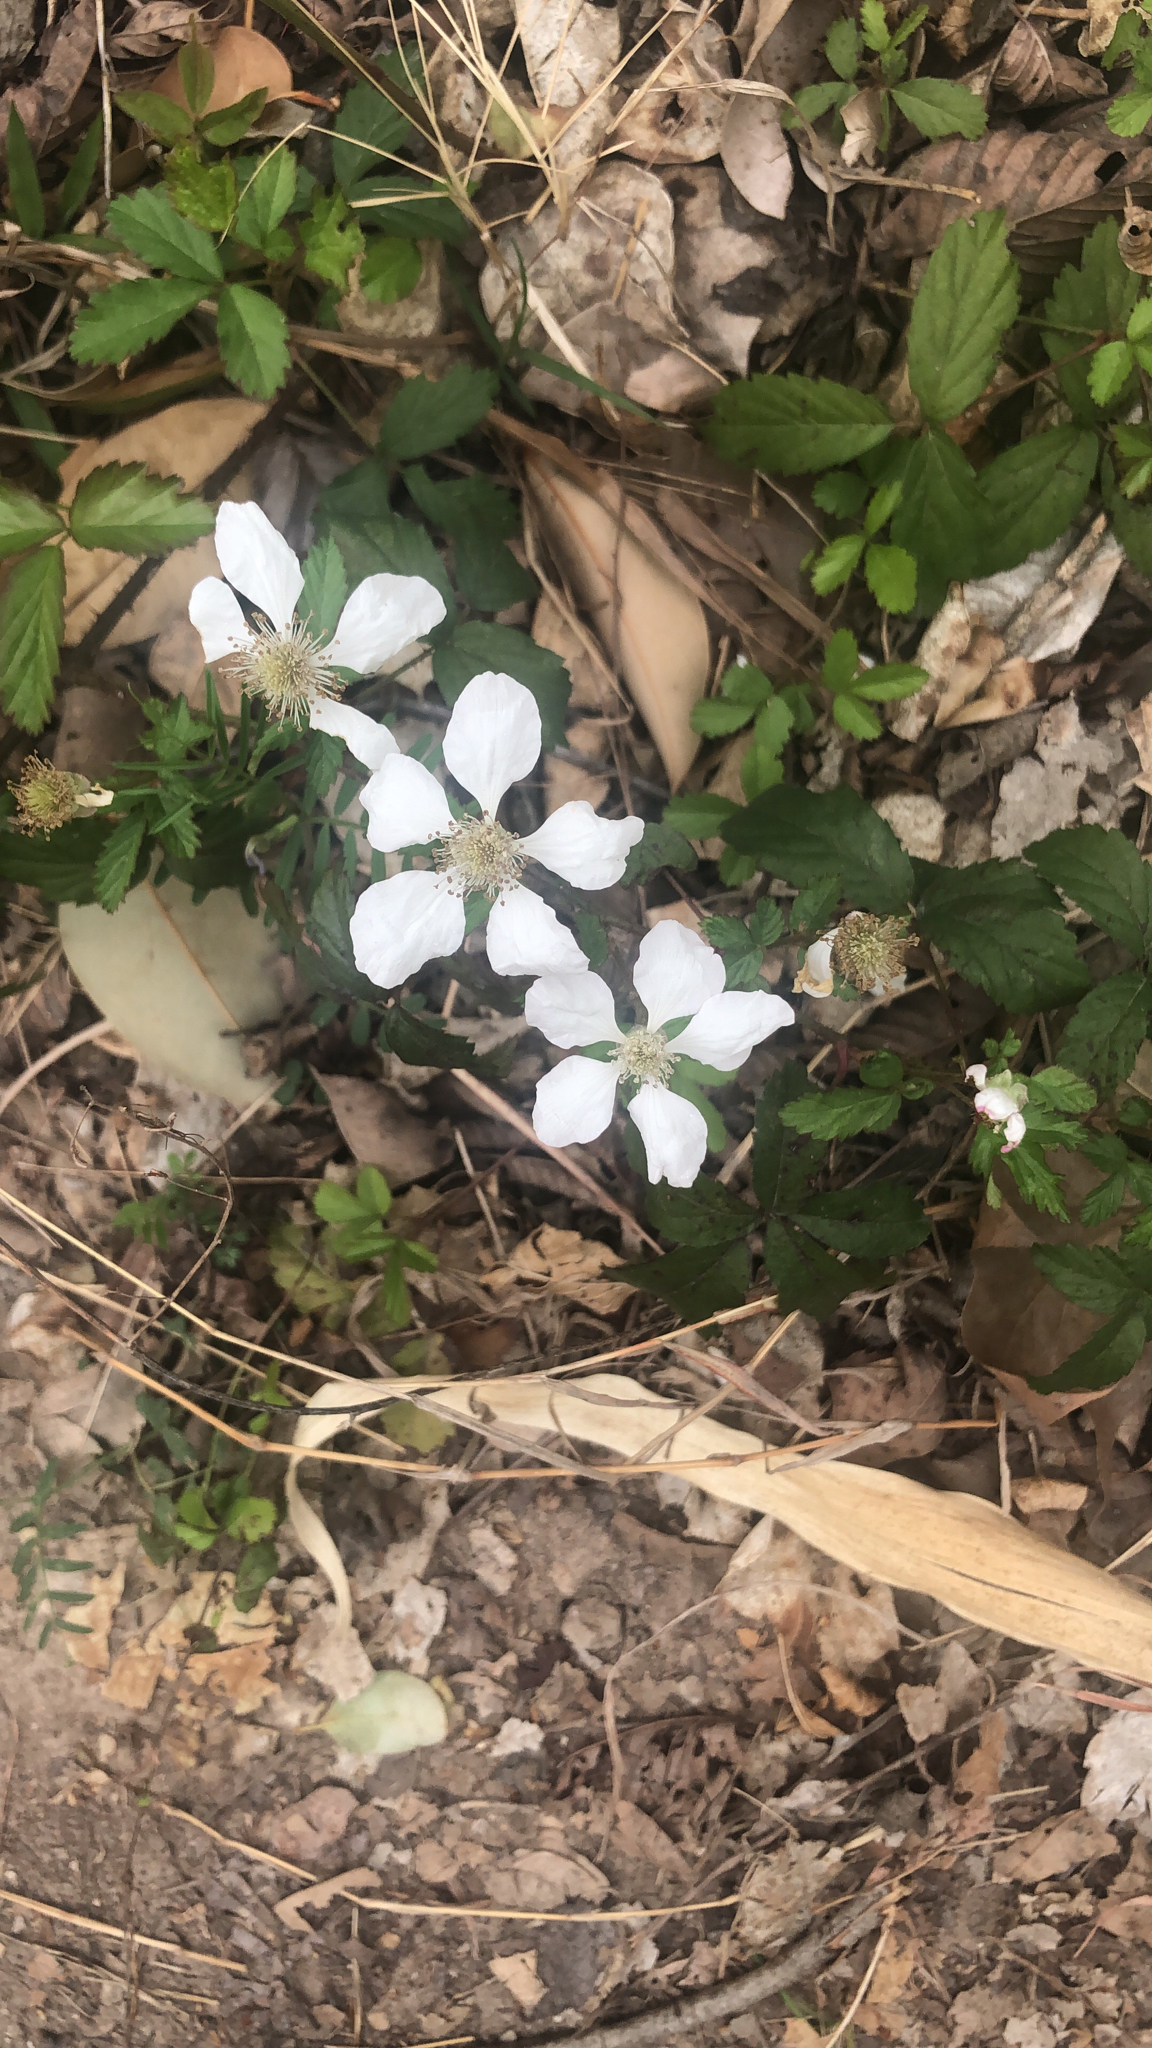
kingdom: Plantae
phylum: Tracheophyta
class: Magnoliopsida
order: Rosales
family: Rosaceae
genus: Rubus
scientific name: Rubus trivialis
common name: Southern dewberry
